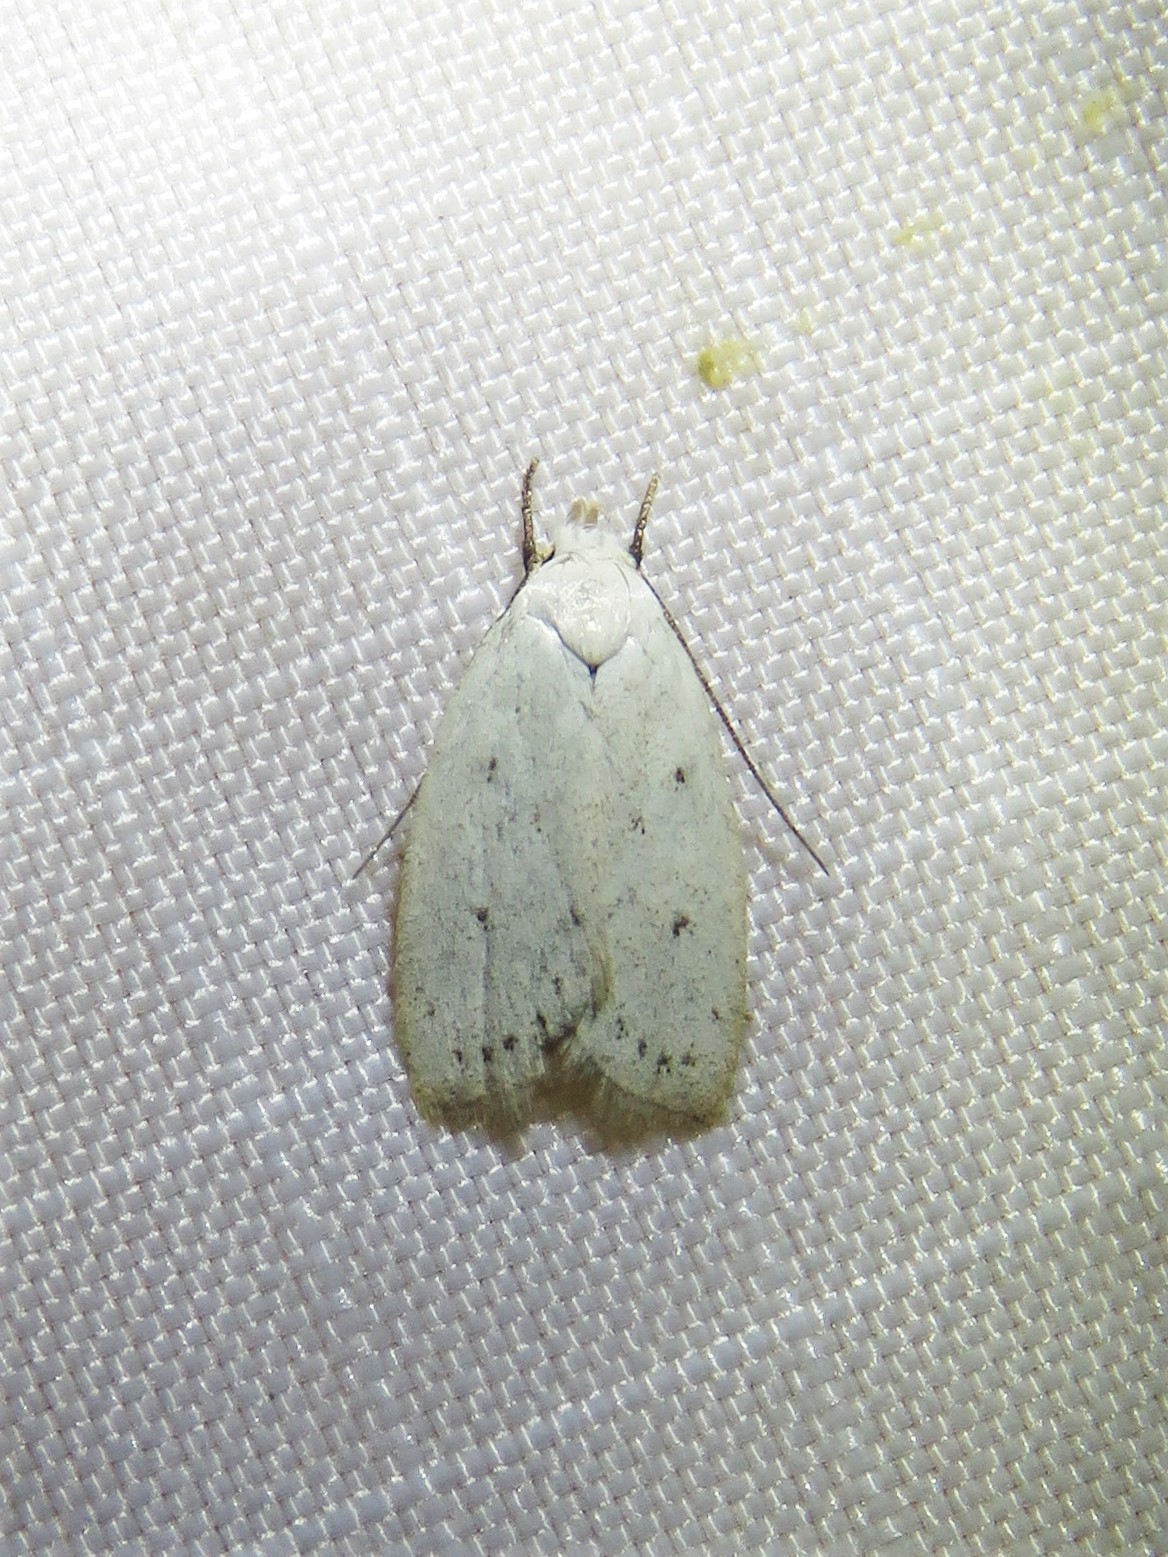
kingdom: Animalia
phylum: Arthropoda
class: Insecta
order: Lepidoptera
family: Oecophoridae
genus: Inga
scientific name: Inga cretacea
